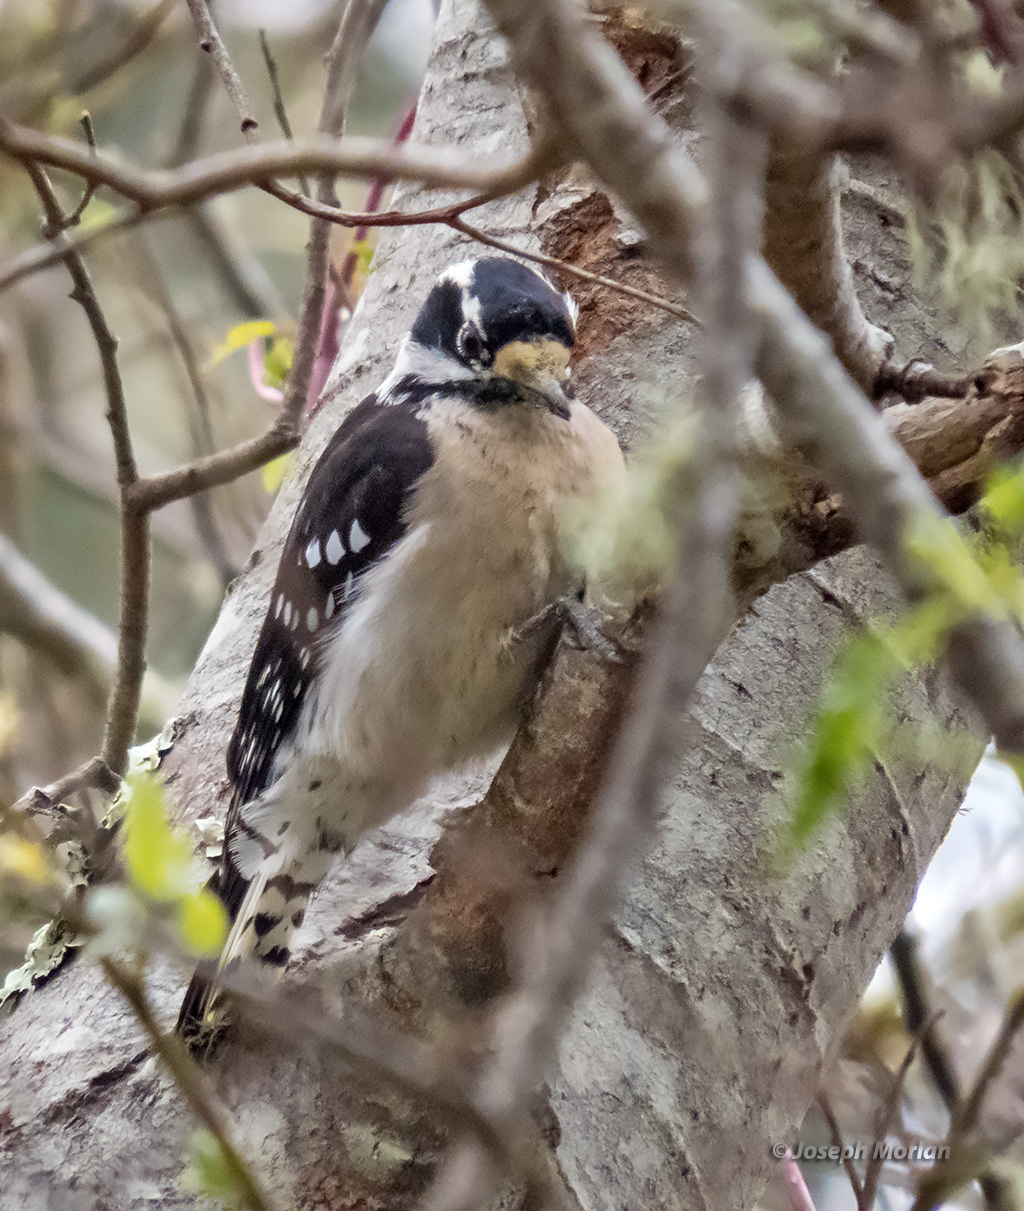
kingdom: Animalia
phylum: Chordata
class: Aves
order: Piciformes
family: Picidae
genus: Dryobates
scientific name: Dryobates pubescens
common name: Downy woodpecker
